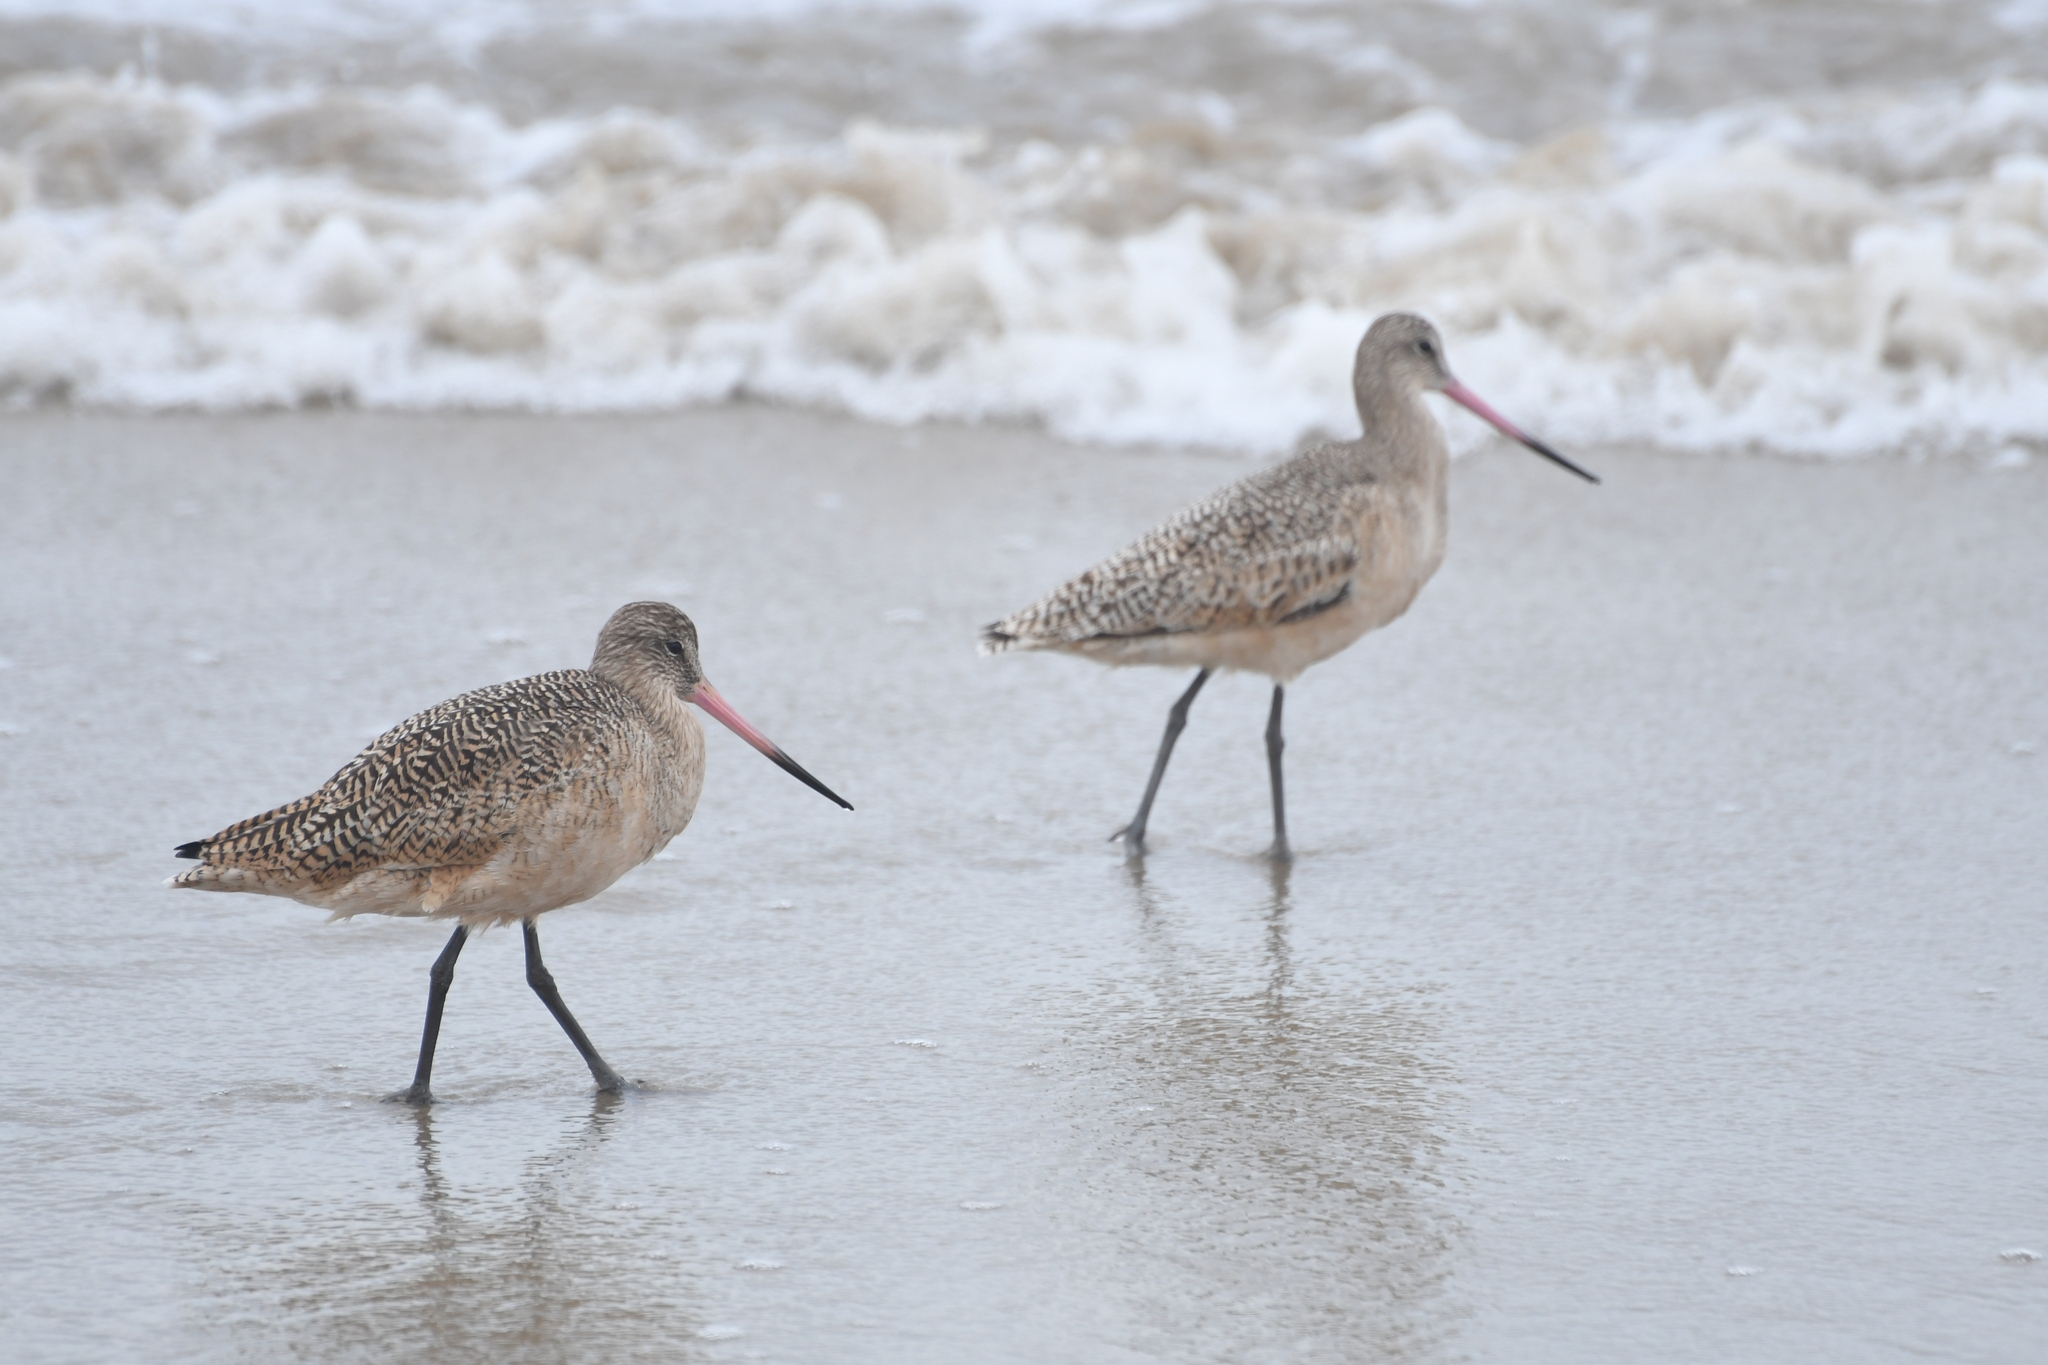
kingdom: Animalia
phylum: Chordata
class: Aves
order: Charadriiformes
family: Scolopacidae
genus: Limosa
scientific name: Limosa fedoa
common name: Marbled godwit
